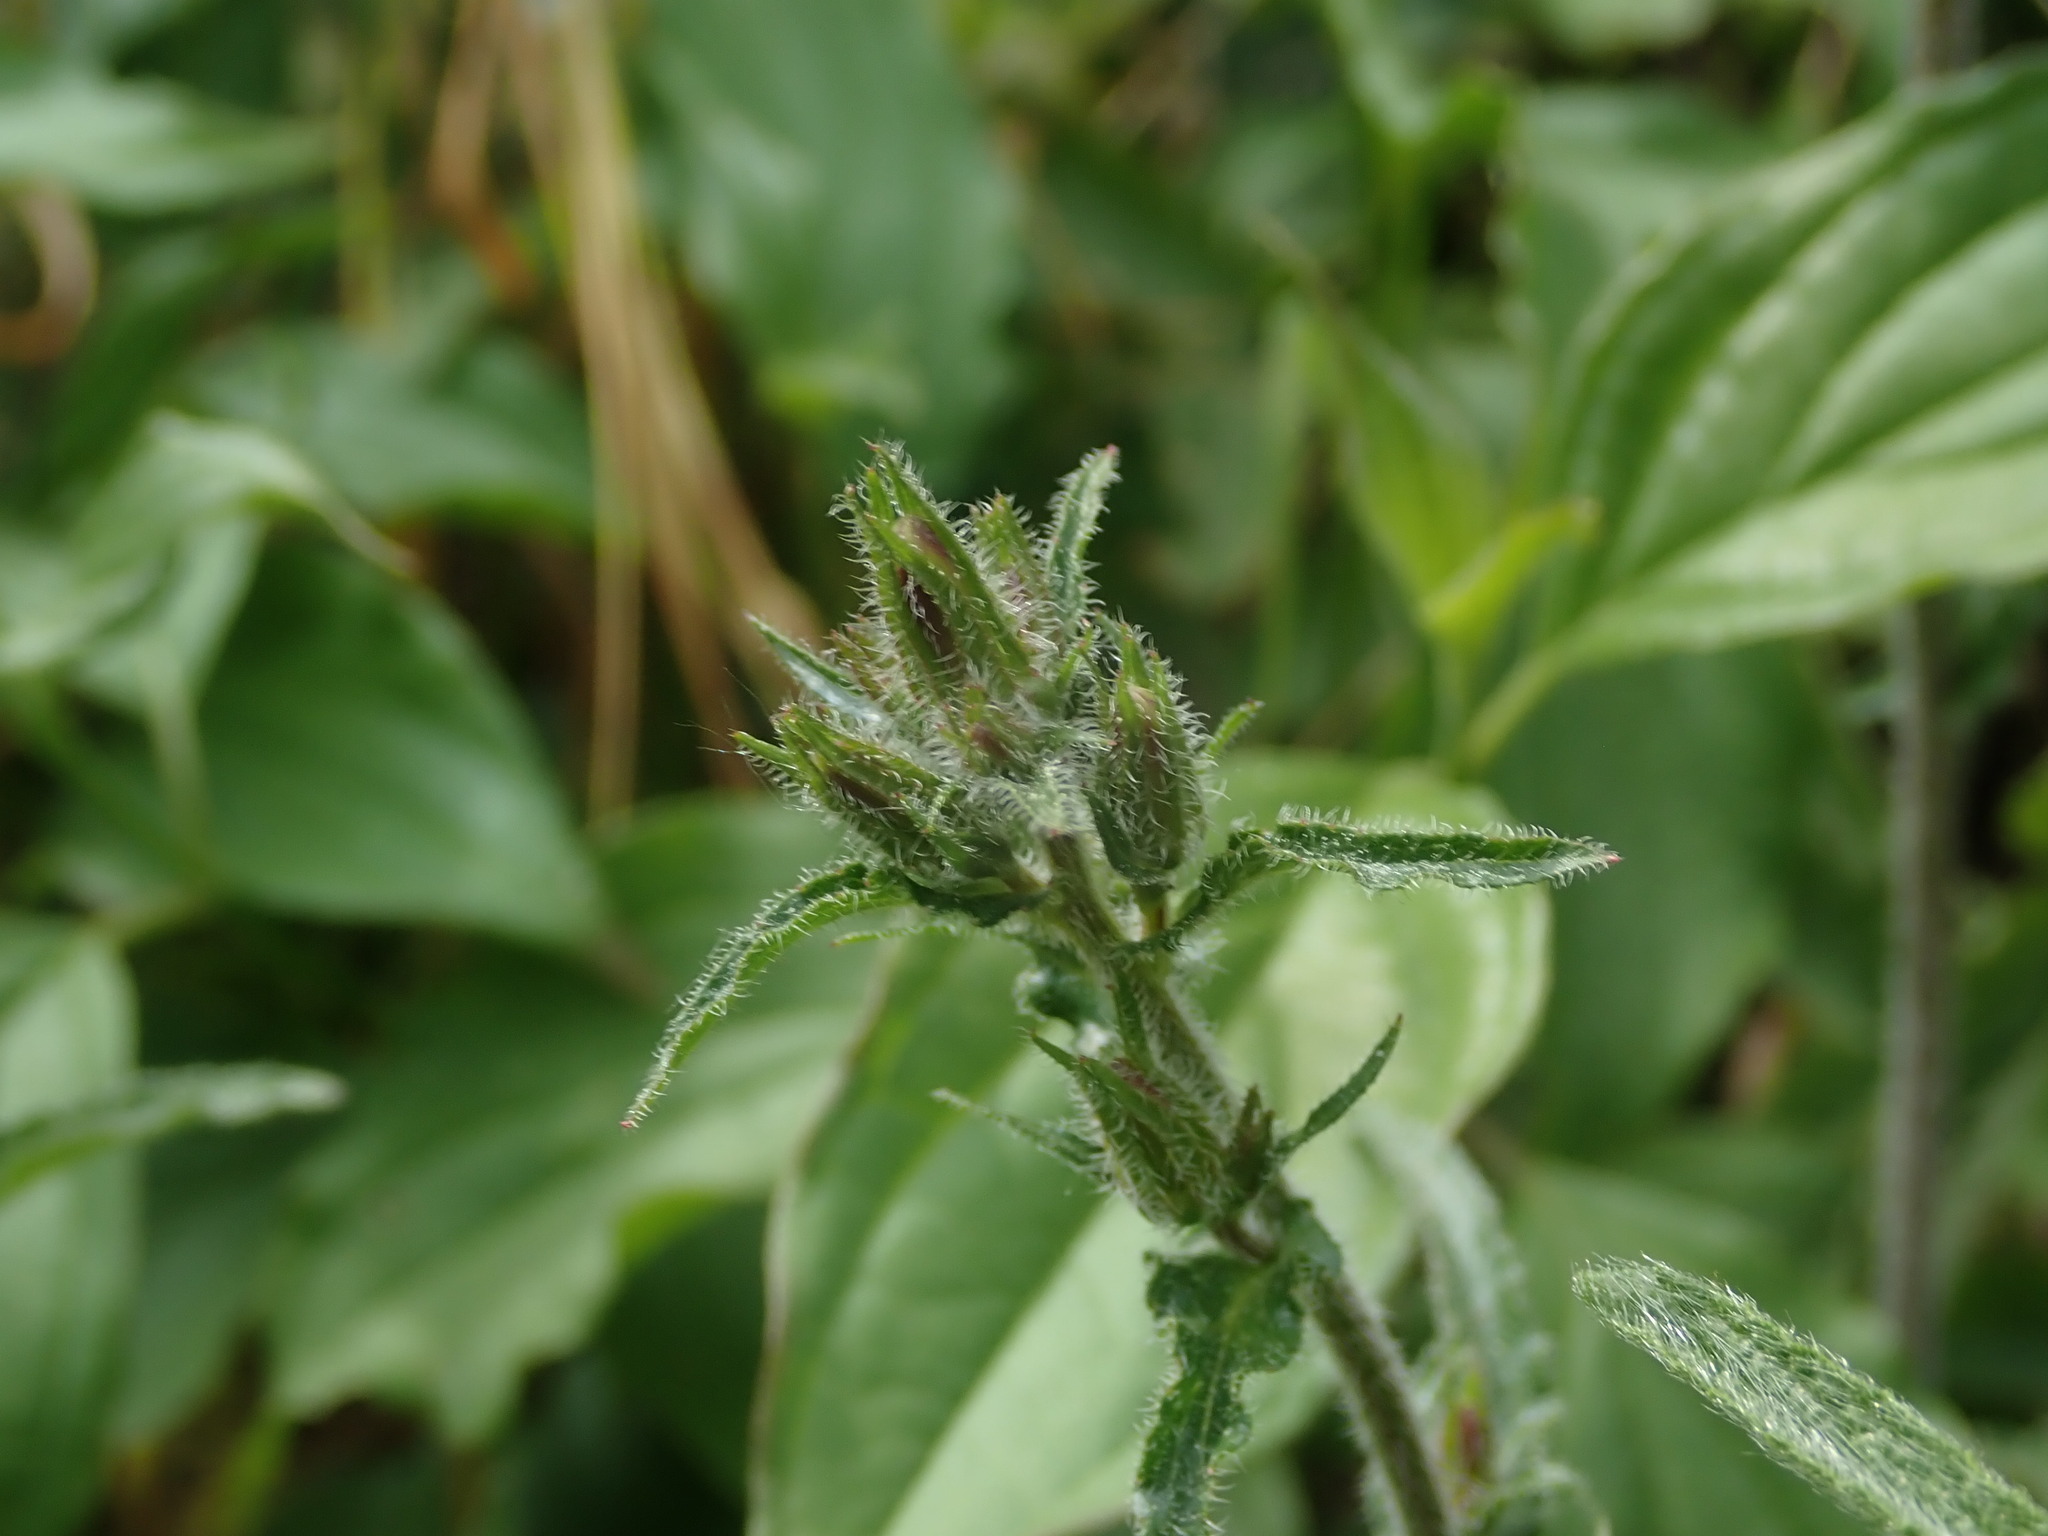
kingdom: Plantae
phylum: Tracheophyta
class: Magnoliopsida
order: Lamiales
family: Lamiaceae
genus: Stachys
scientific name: Stachys recta
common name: Perennial yellow-woundwort
